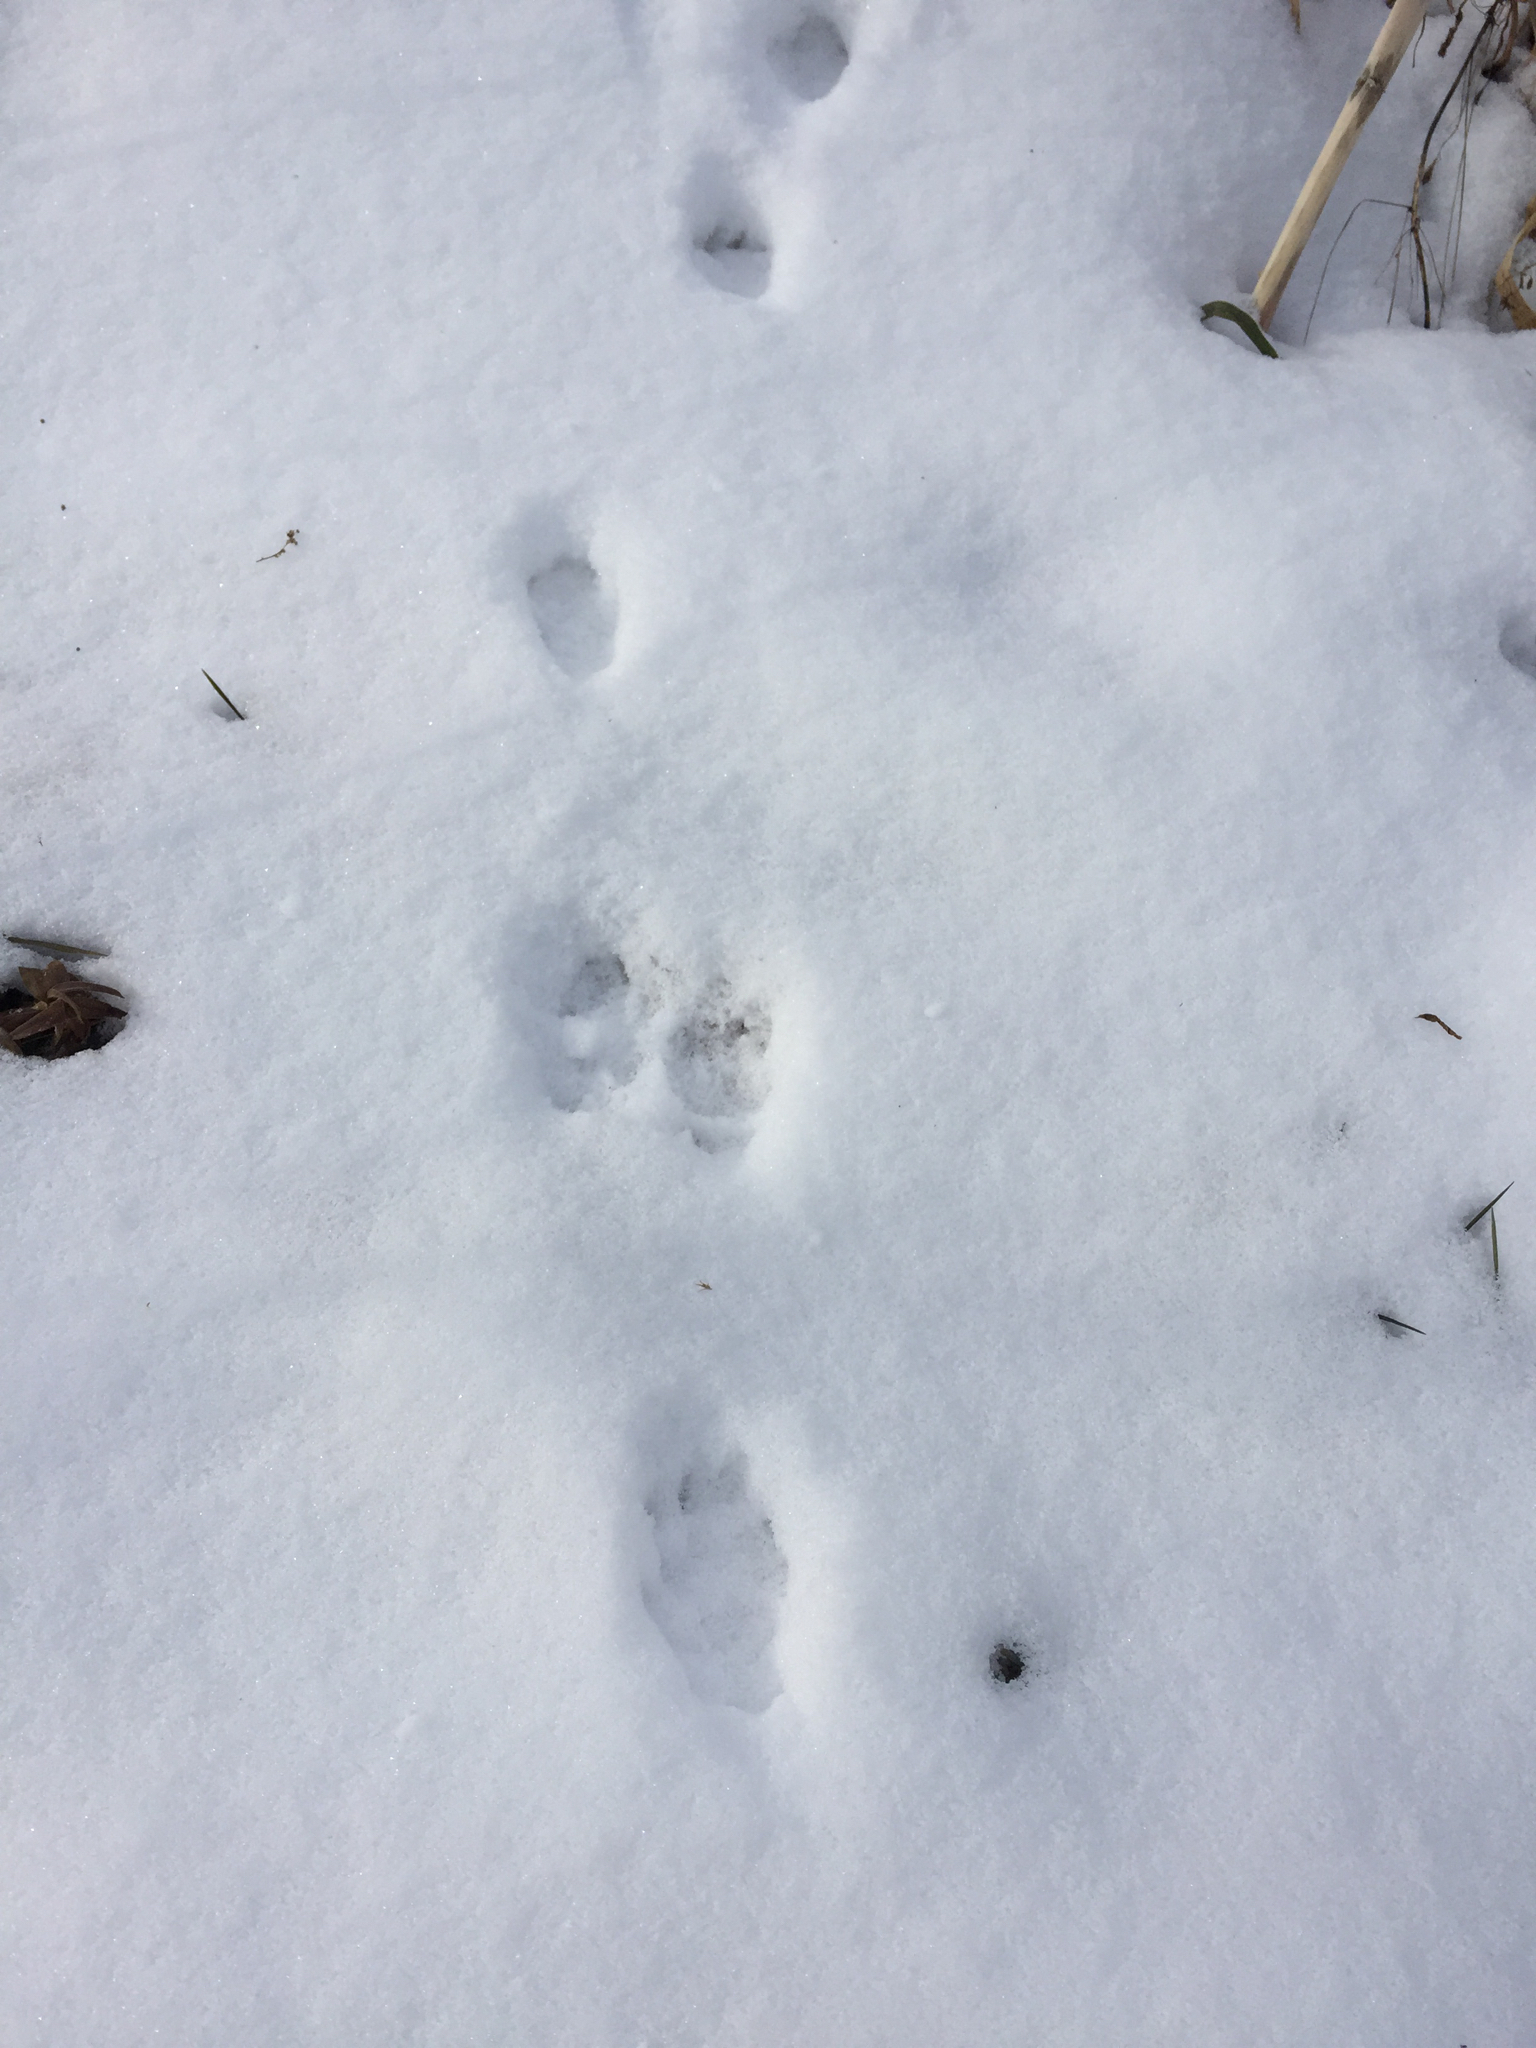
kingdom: Animalia
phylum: Chordata
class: Mammalia
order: Carnivora
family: Mustelidae
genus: Pekania
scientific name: Pekania pennanti
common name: Fisher
